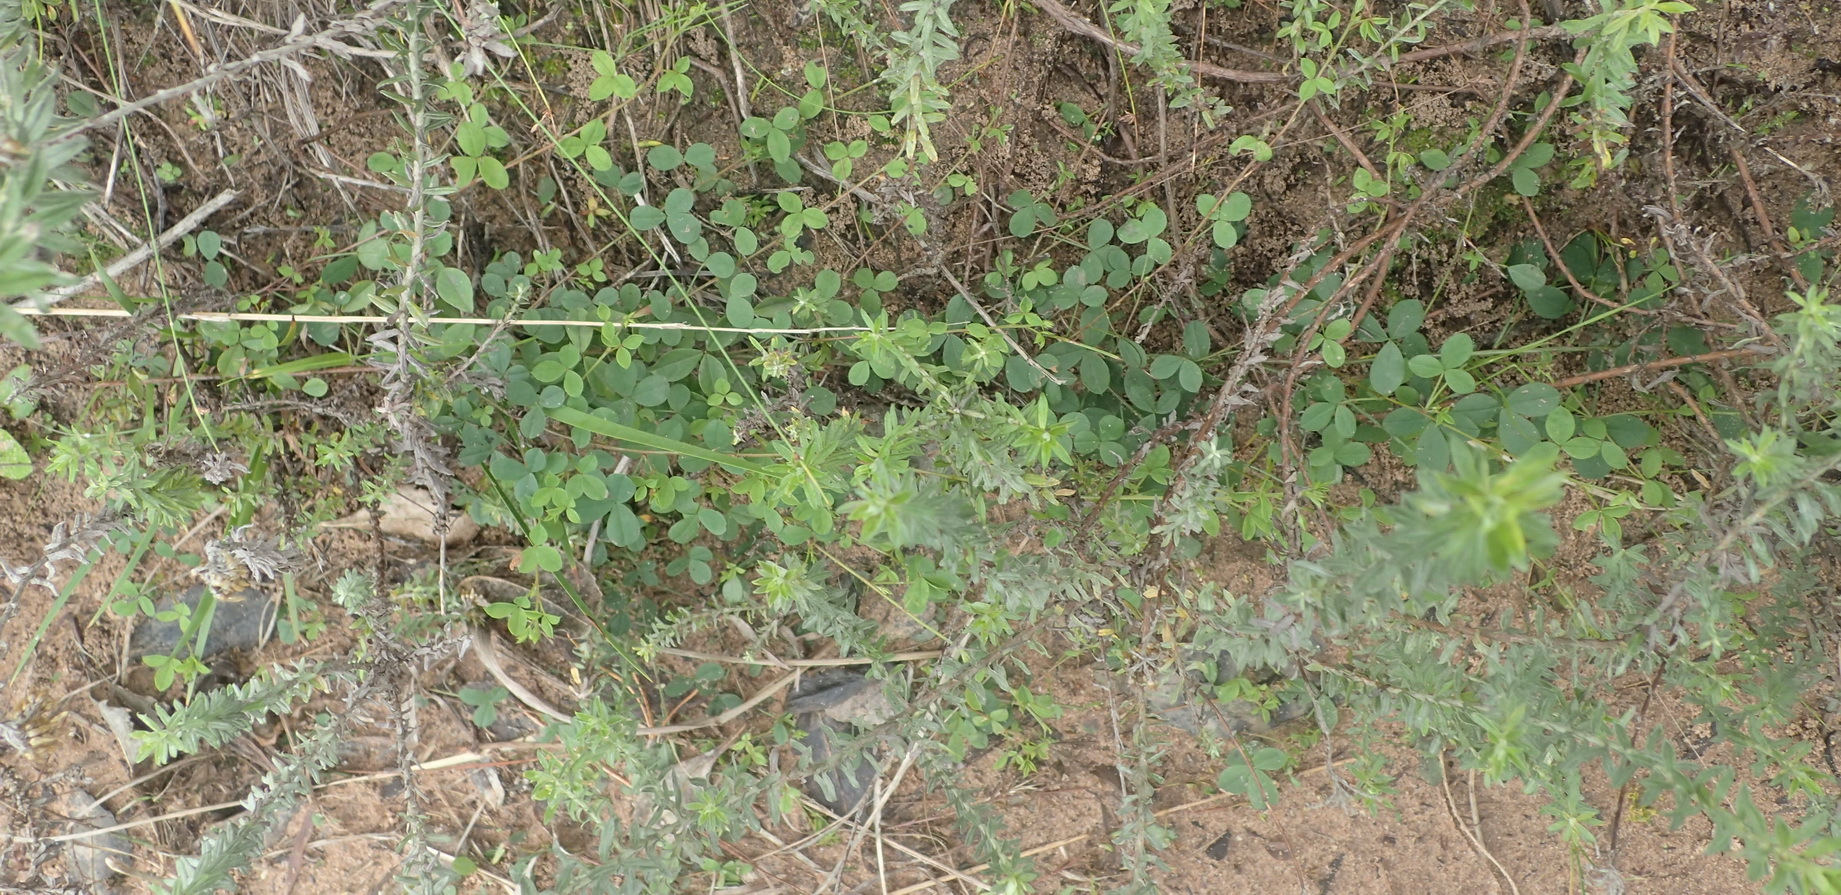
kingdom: Plantae
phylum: Tracheophyta
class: Magnoliopsida
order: Fabales
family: Fabaceae
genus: Indigofera
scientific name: Indigofera erecta
